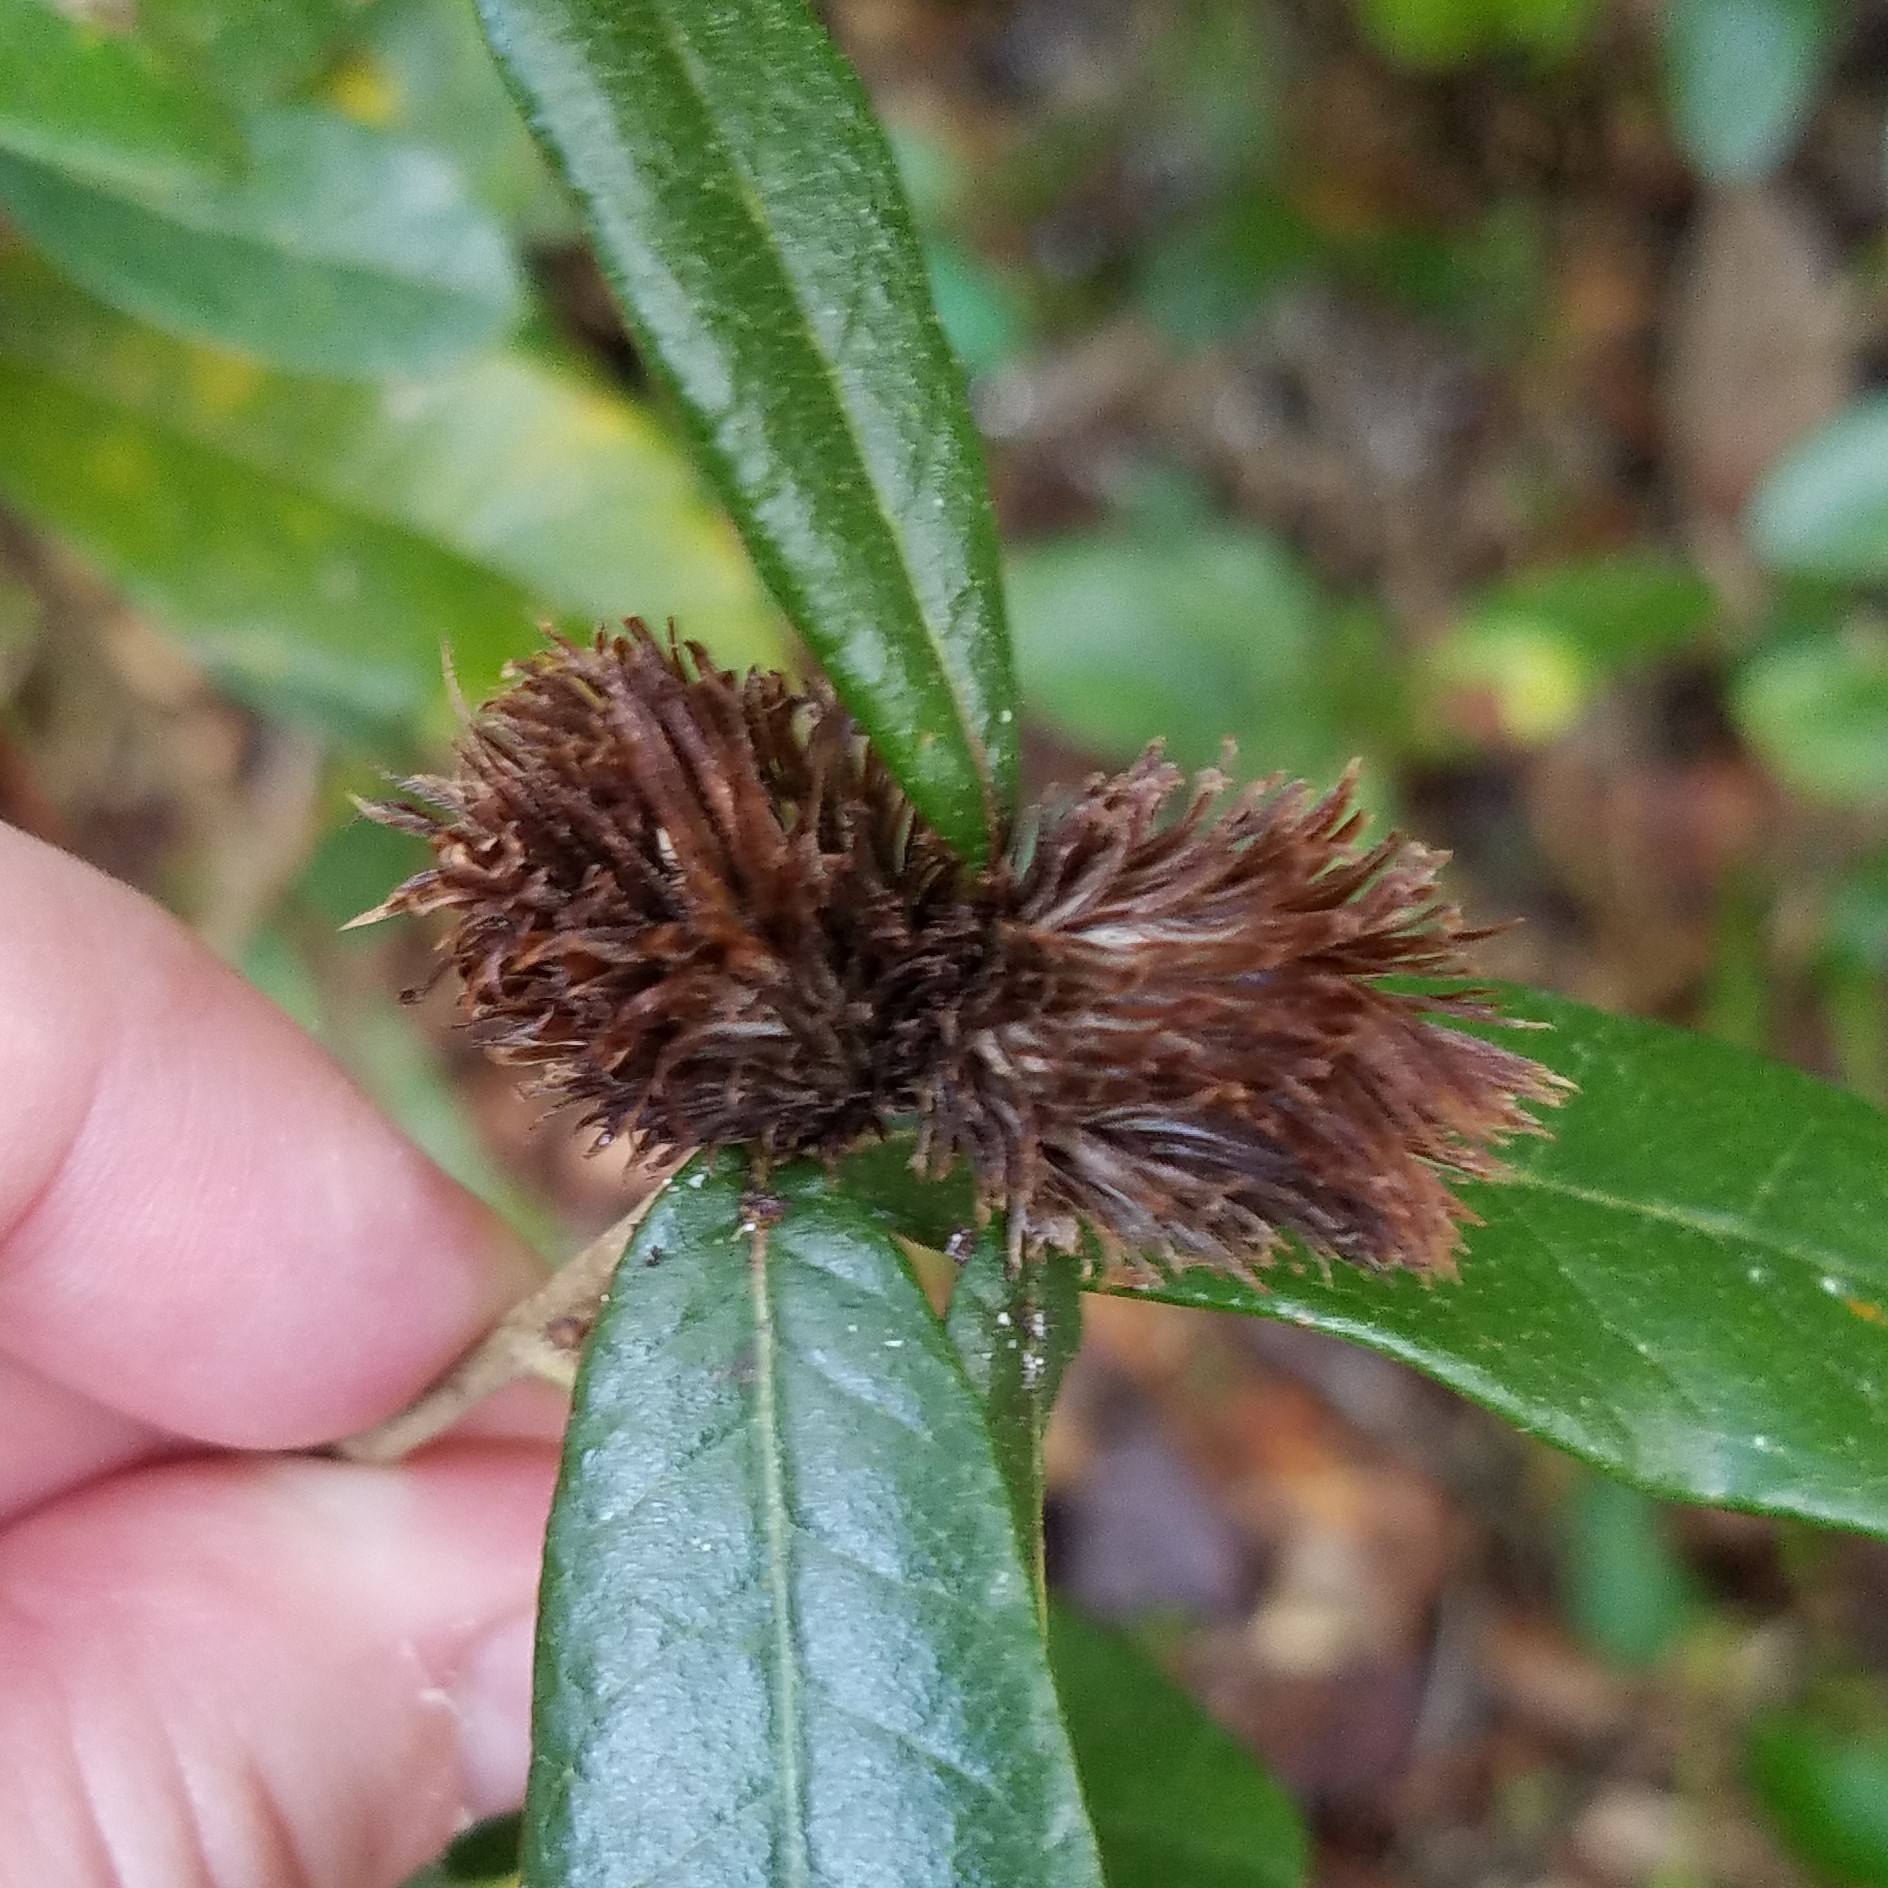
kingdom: Animalia
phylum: Arthropoda
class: Insecta
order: Hymenoptera
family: Cynipidae
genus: Andricus
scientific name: Andricus quercusfoliatus
